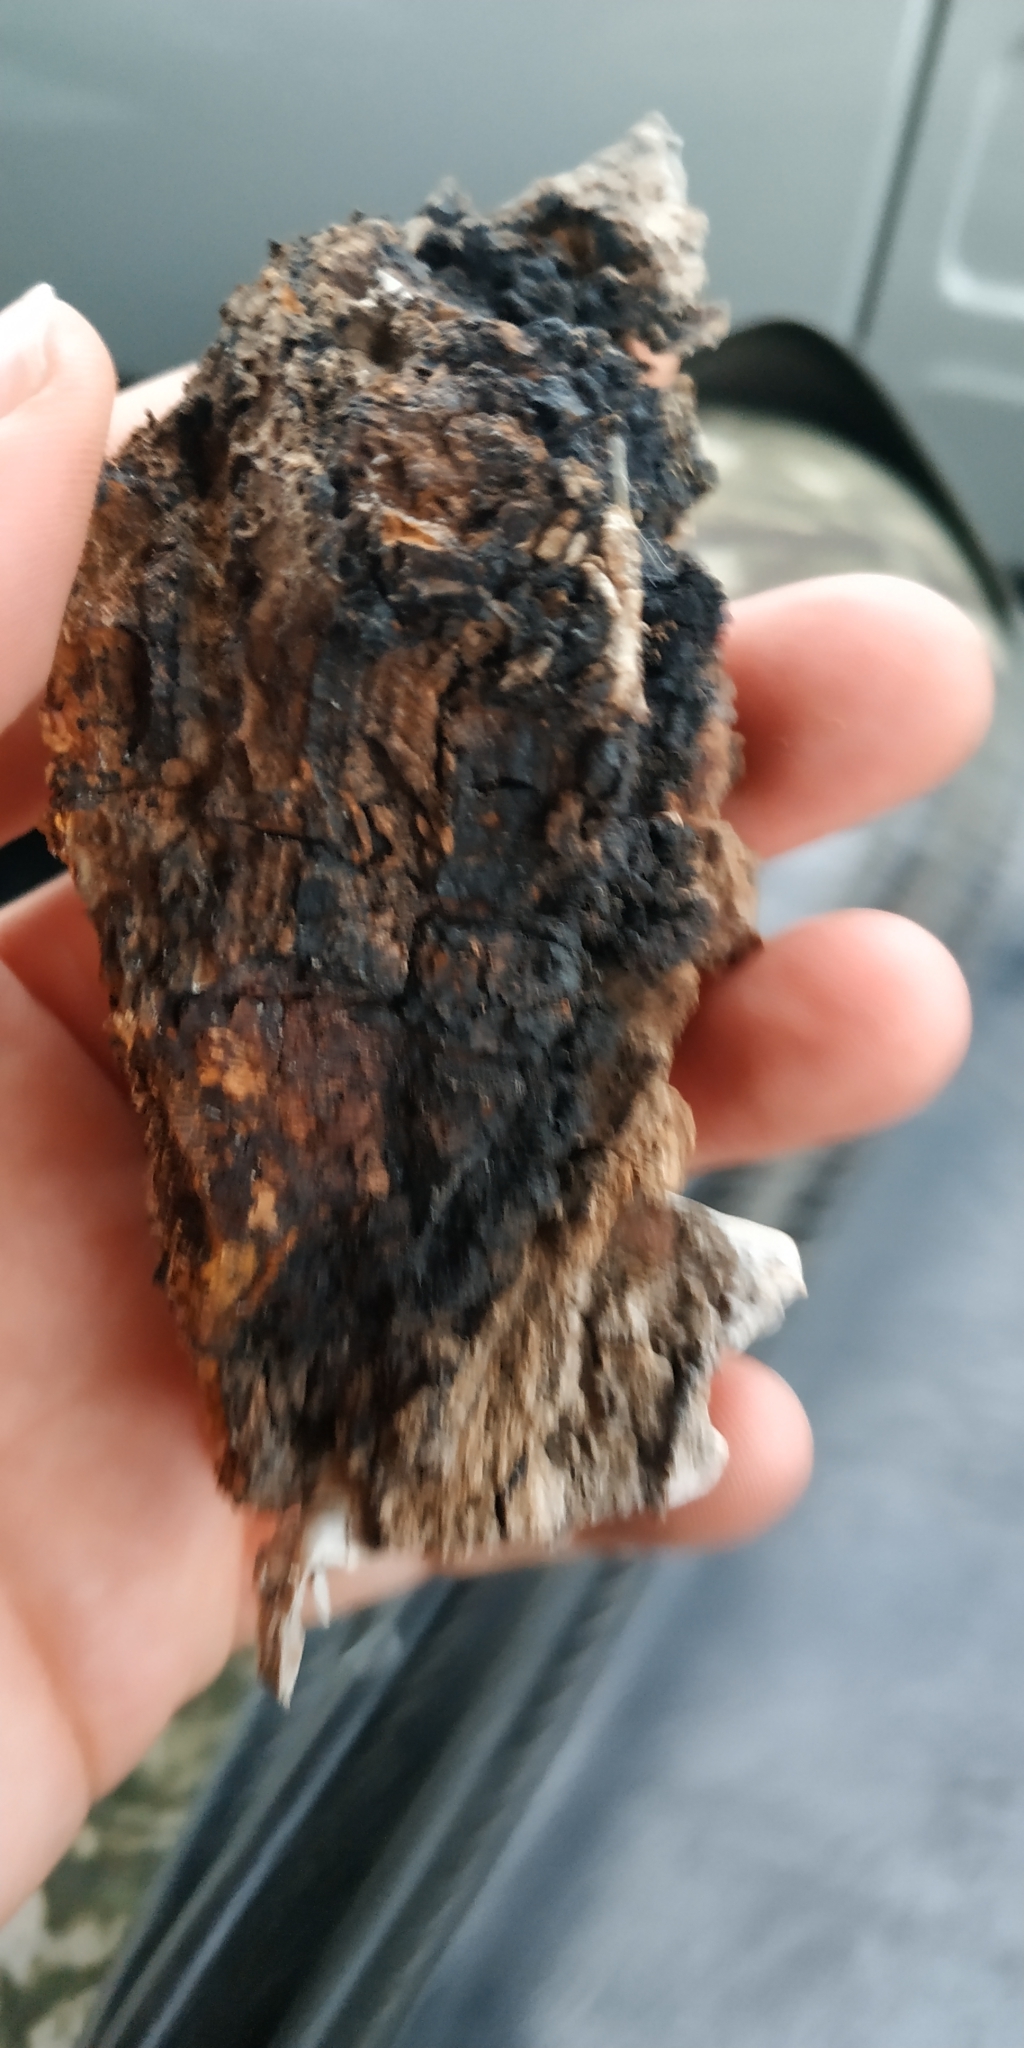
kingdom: Fungi
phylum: Basidiomycota
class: Agaricomycetes
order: Hymenochaetales
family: Hymenochaetaceae
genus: Inonotus
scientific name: Inonotus obliquus
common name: Chaga
